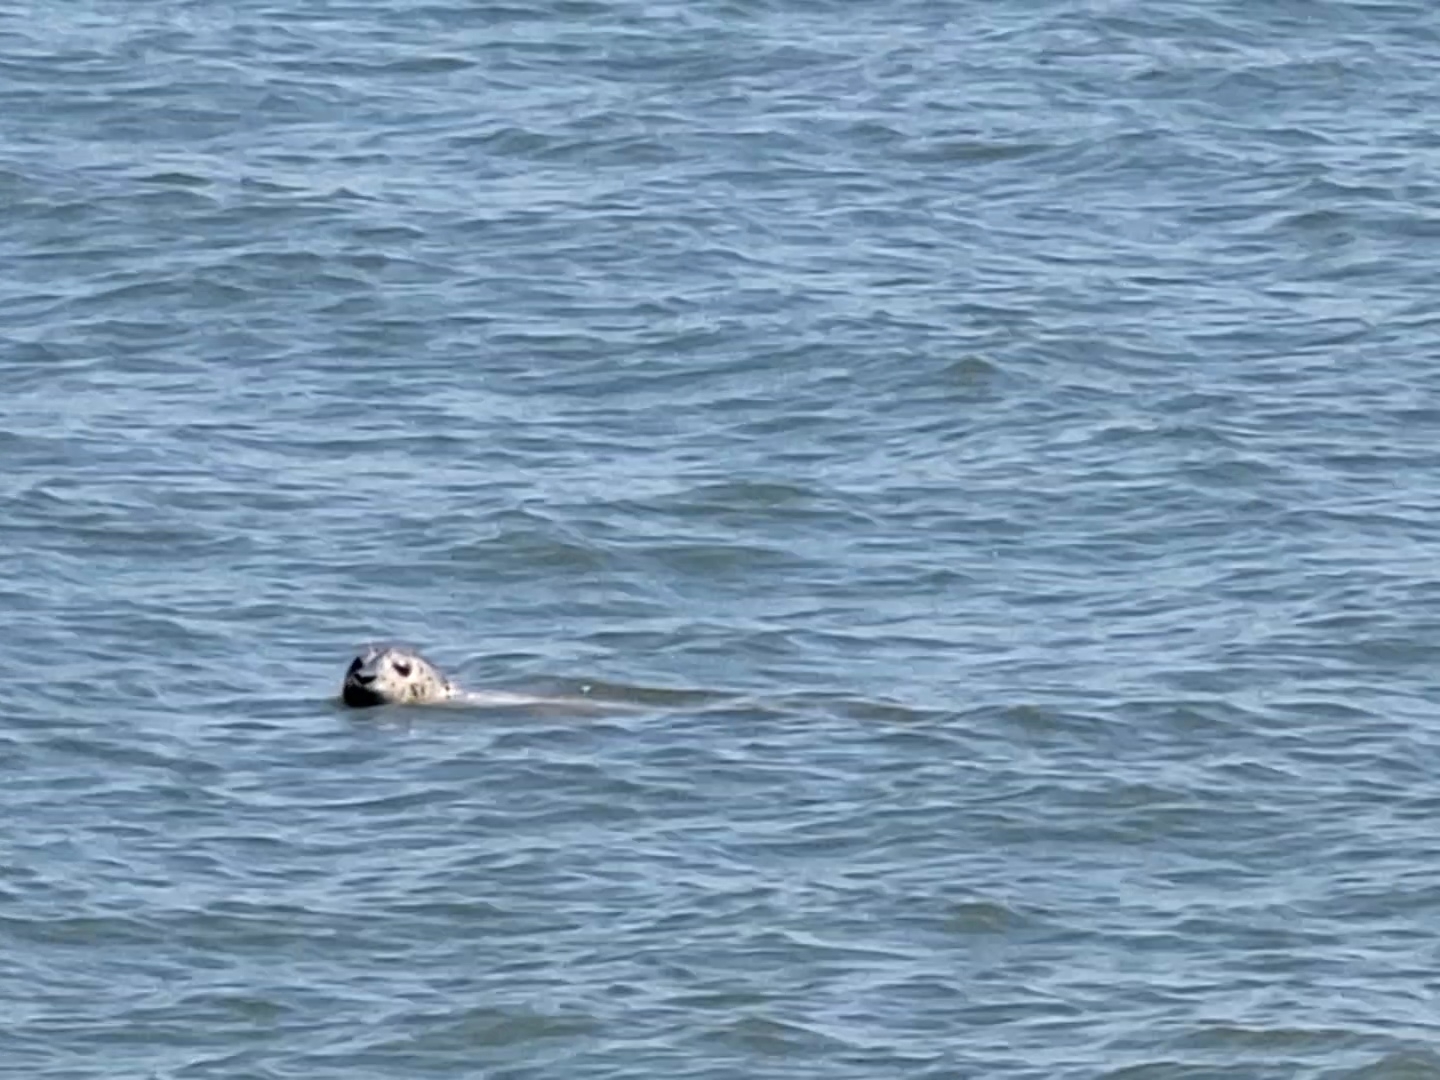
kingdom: Animalia
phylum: Chordata
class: Mammalia
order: Carnivora
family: Phocidae
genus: Phoca
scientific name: Phoca vitulina
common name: Harbor seal
